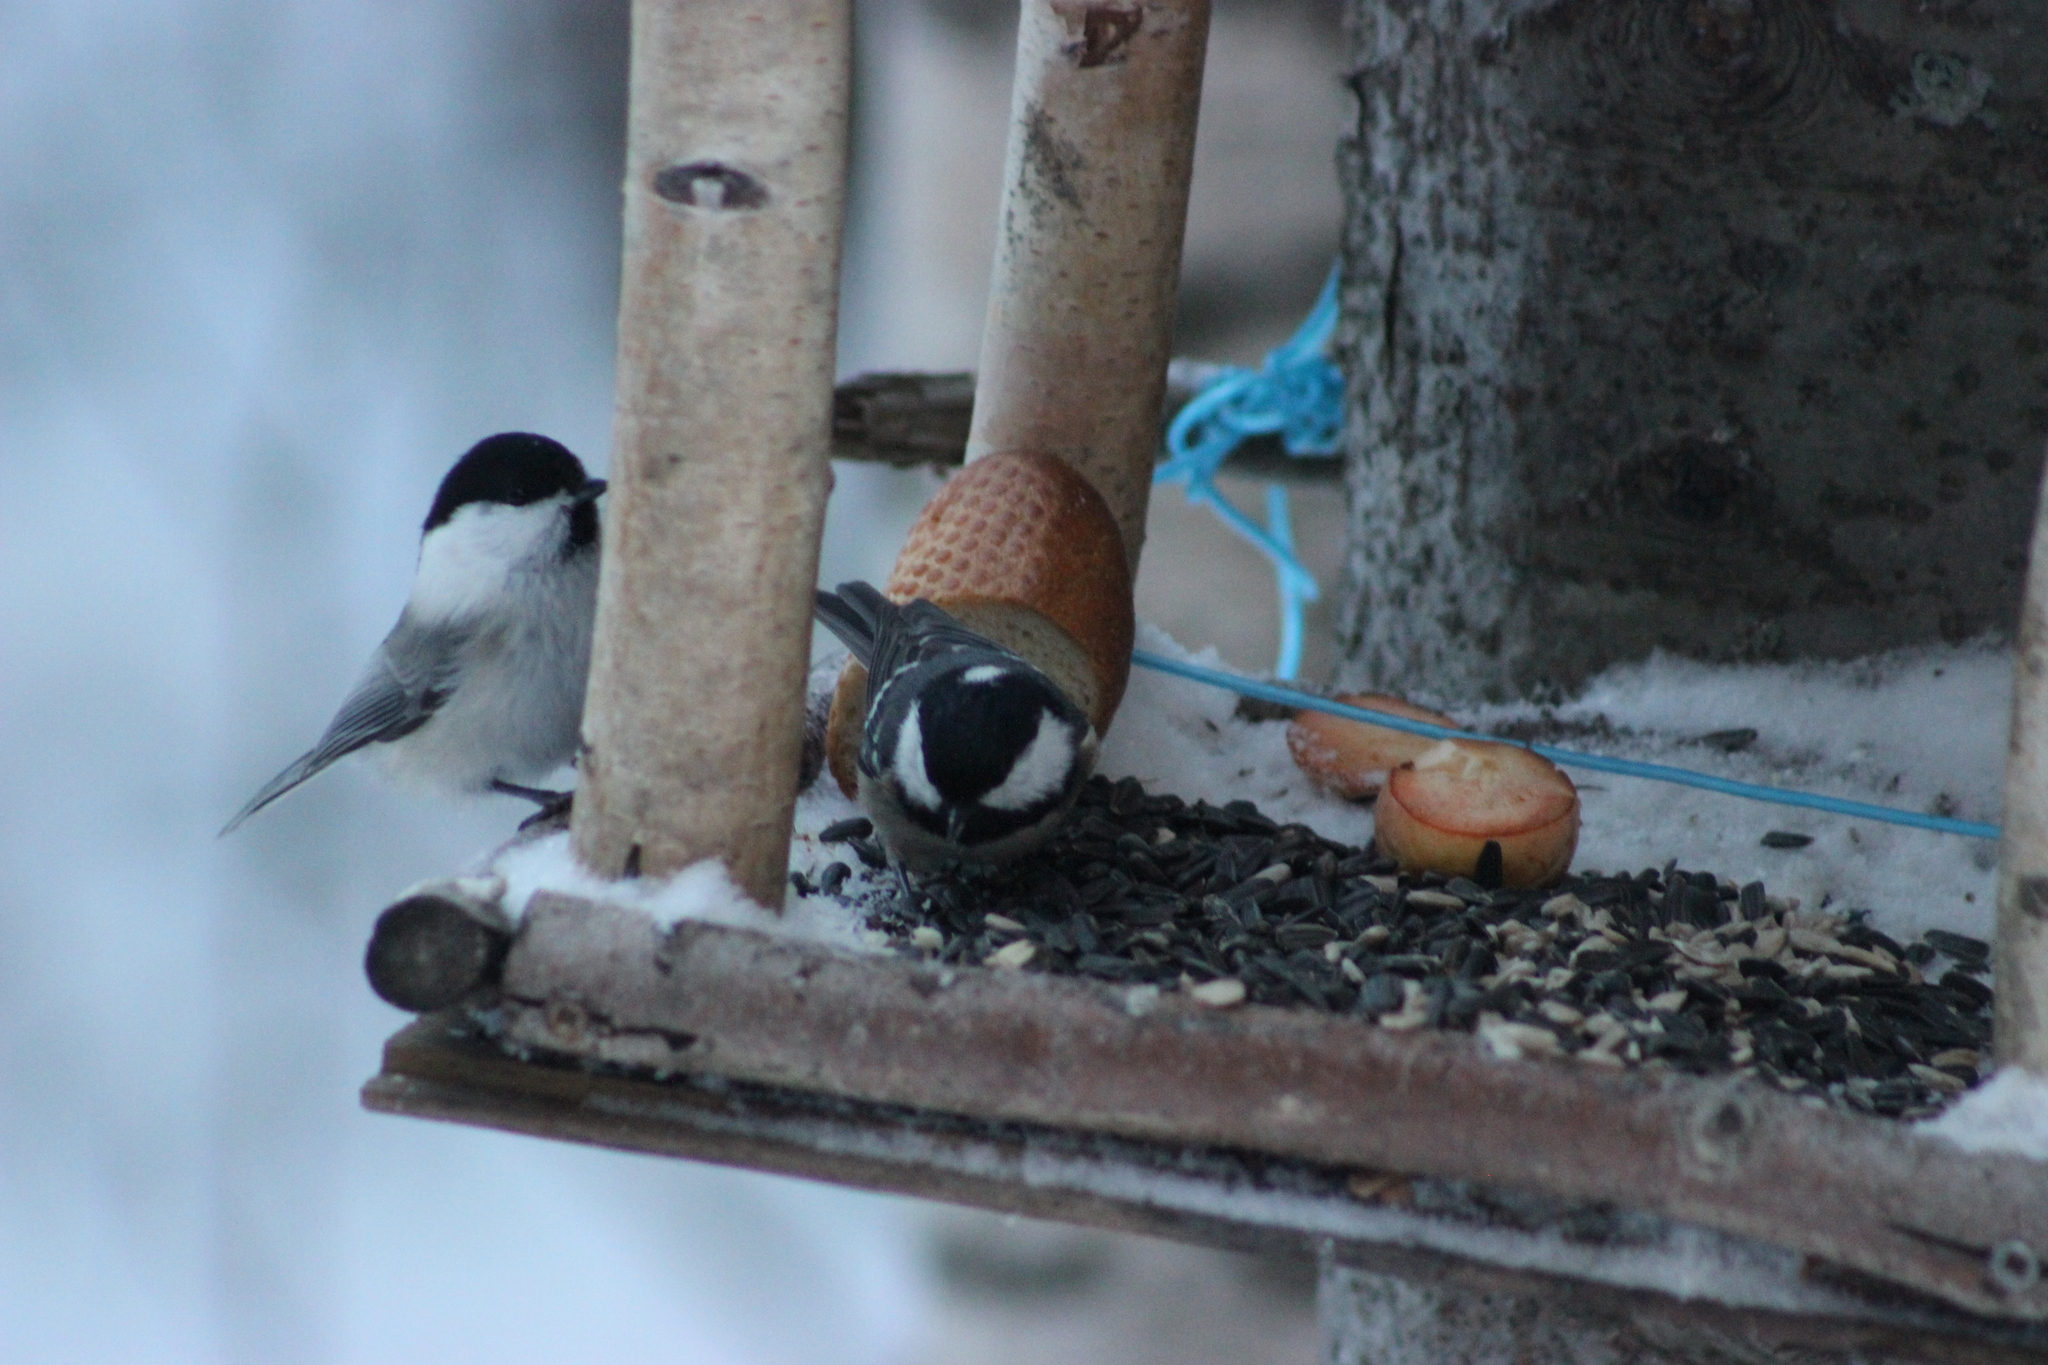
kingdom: Animalia
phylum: Chordata
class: Aves
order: Passeriformes
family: Paridae
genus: Periparus
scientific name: Periparus ater
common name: Coal tit
